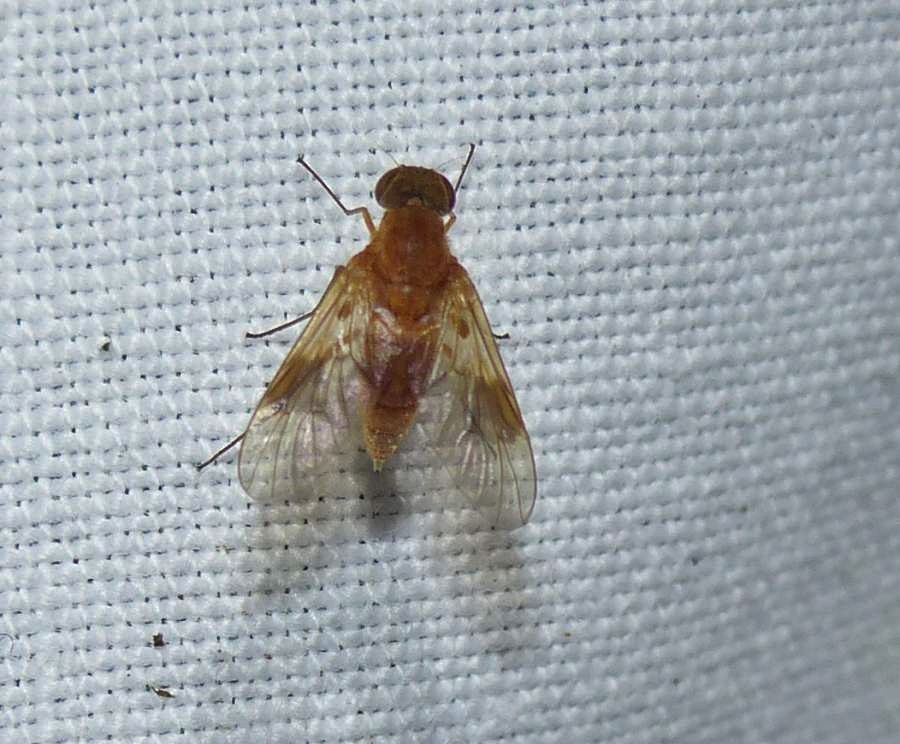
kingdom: Animalia
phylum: Arthropoda
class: Insecta
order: Diptera
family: Rhagionidae
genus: Chrysopilus
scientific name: Chrysopilus quadratus
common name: Quadrate snipe fly
